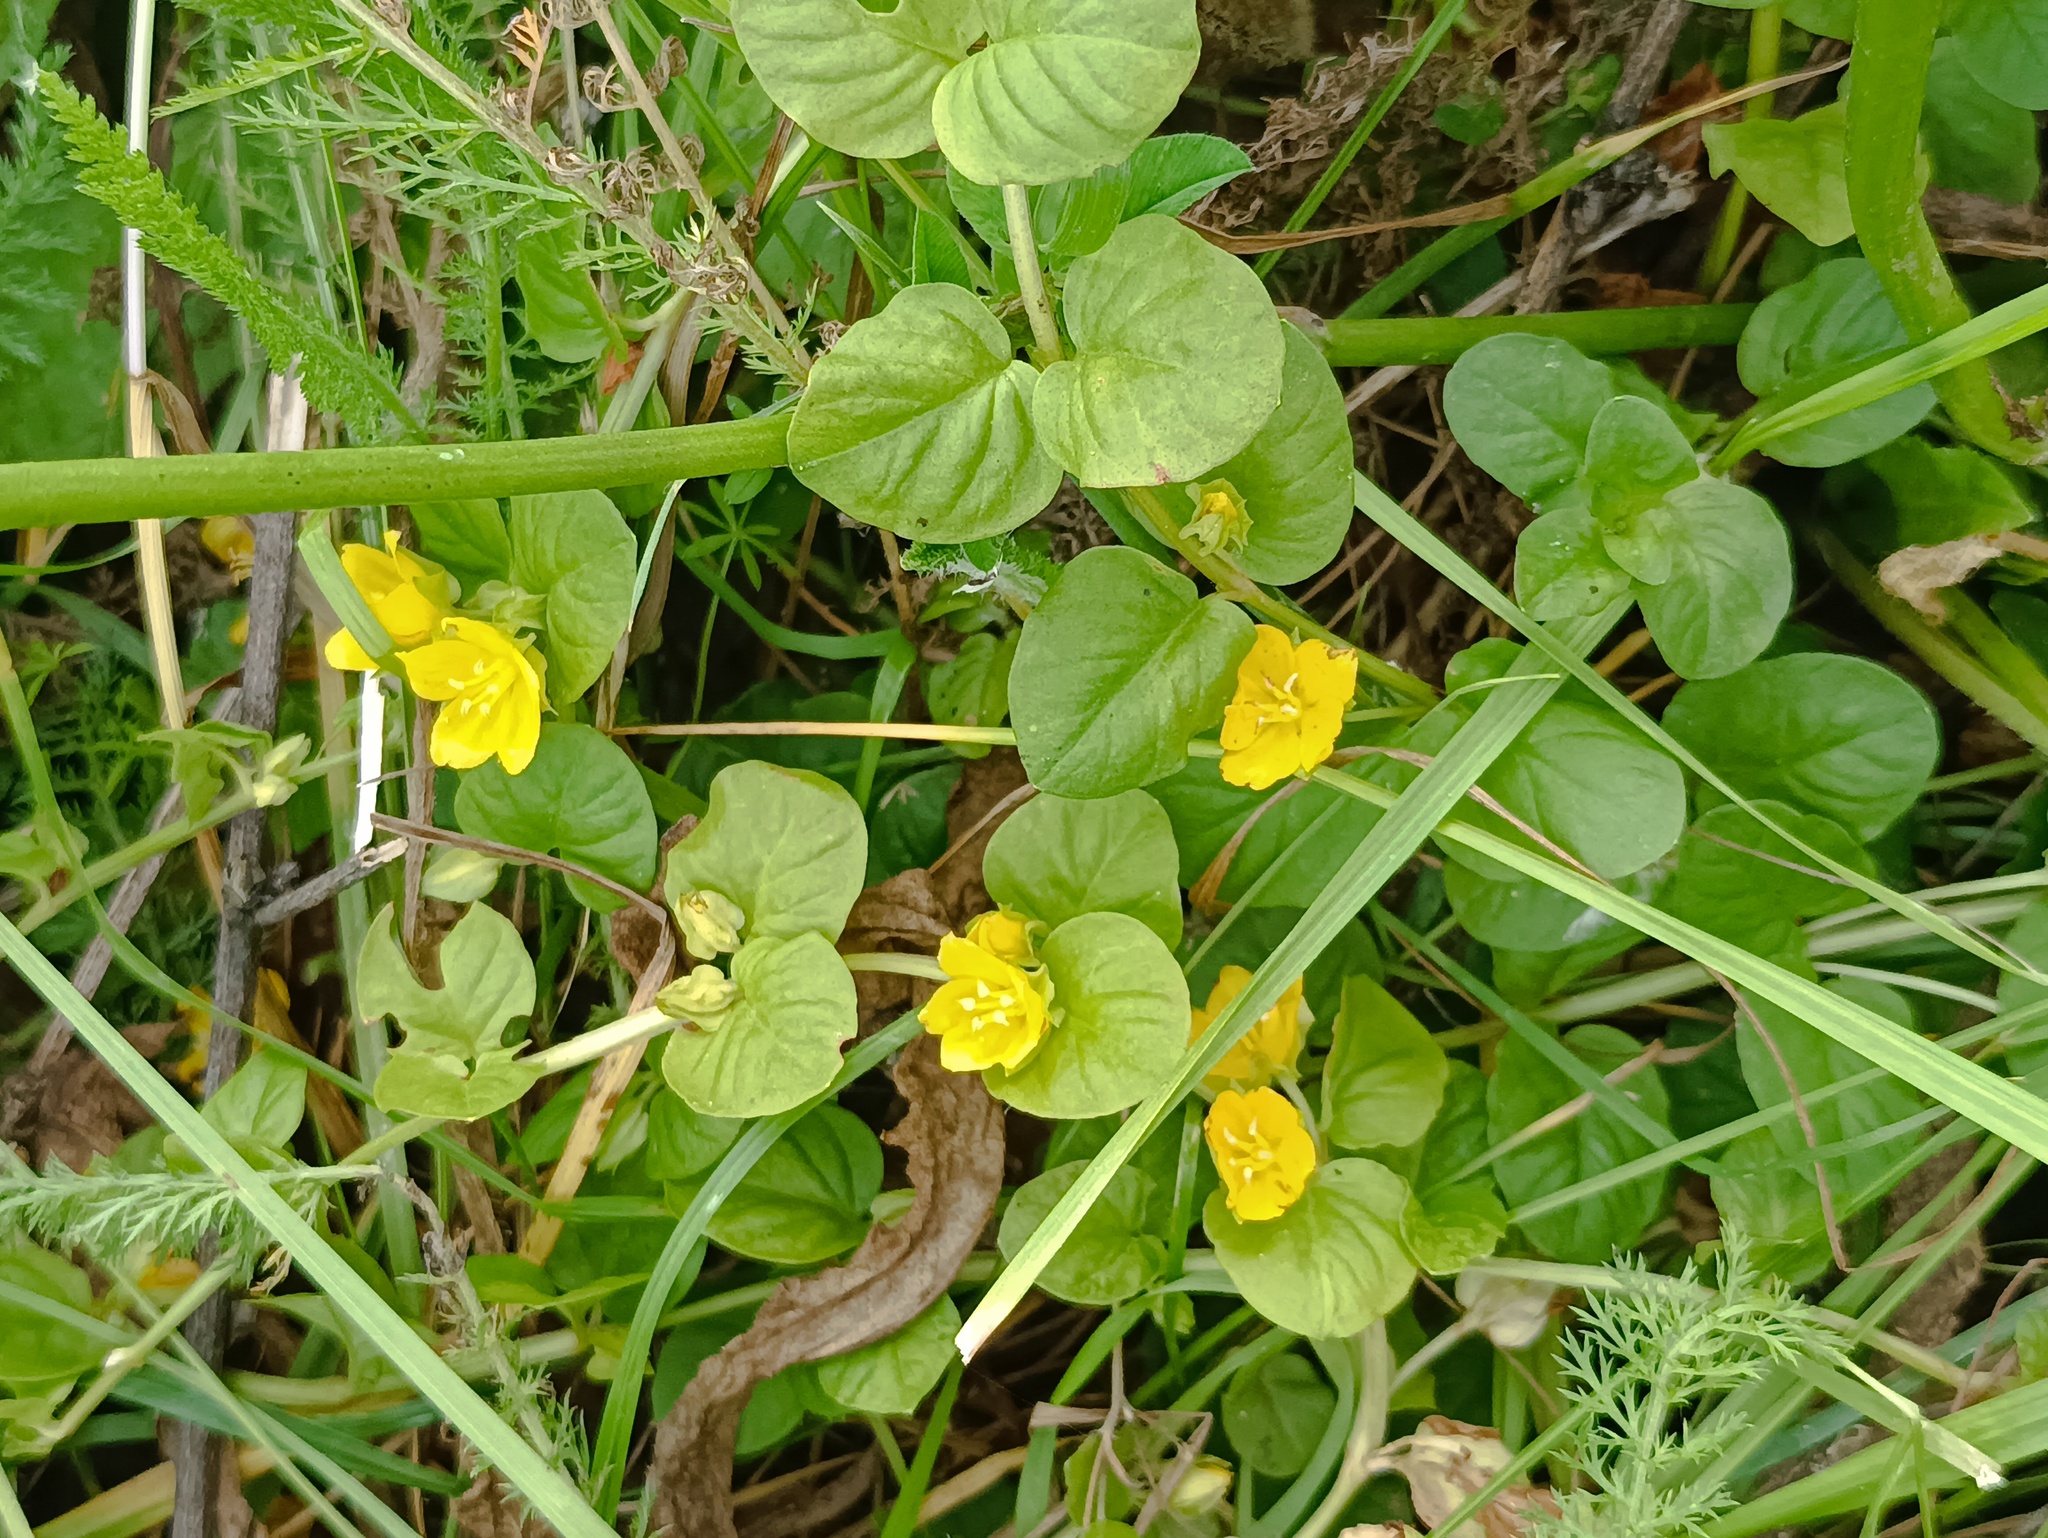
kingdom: Plantae
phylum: Tracheophyta
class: Magnoliopsida
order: Ericales
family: Primulaceae
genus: Lysimachia
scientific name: Lysimachia nummularia
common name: Moneywort
